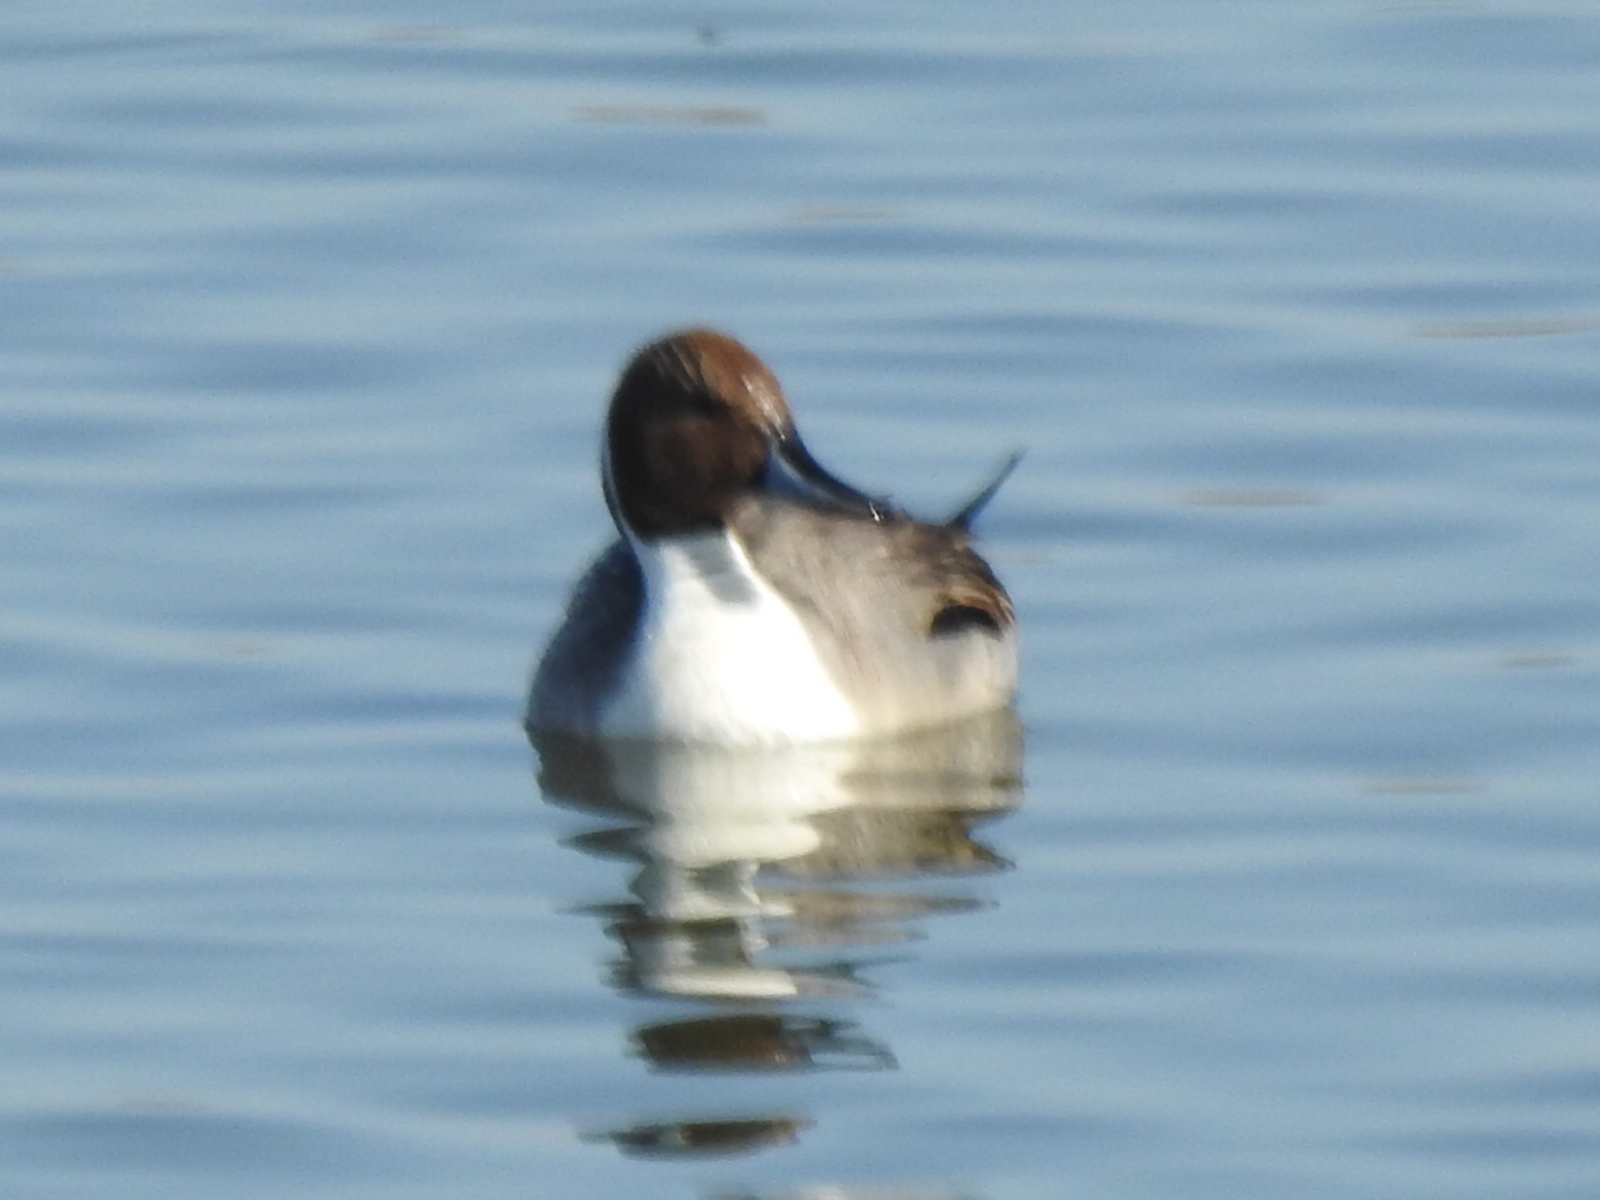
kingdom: Animalia
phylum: Chordata
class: Aves
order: Anseriformes
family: Anatidae
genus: Anas
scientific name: Anas acuta
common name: Northern pintail
